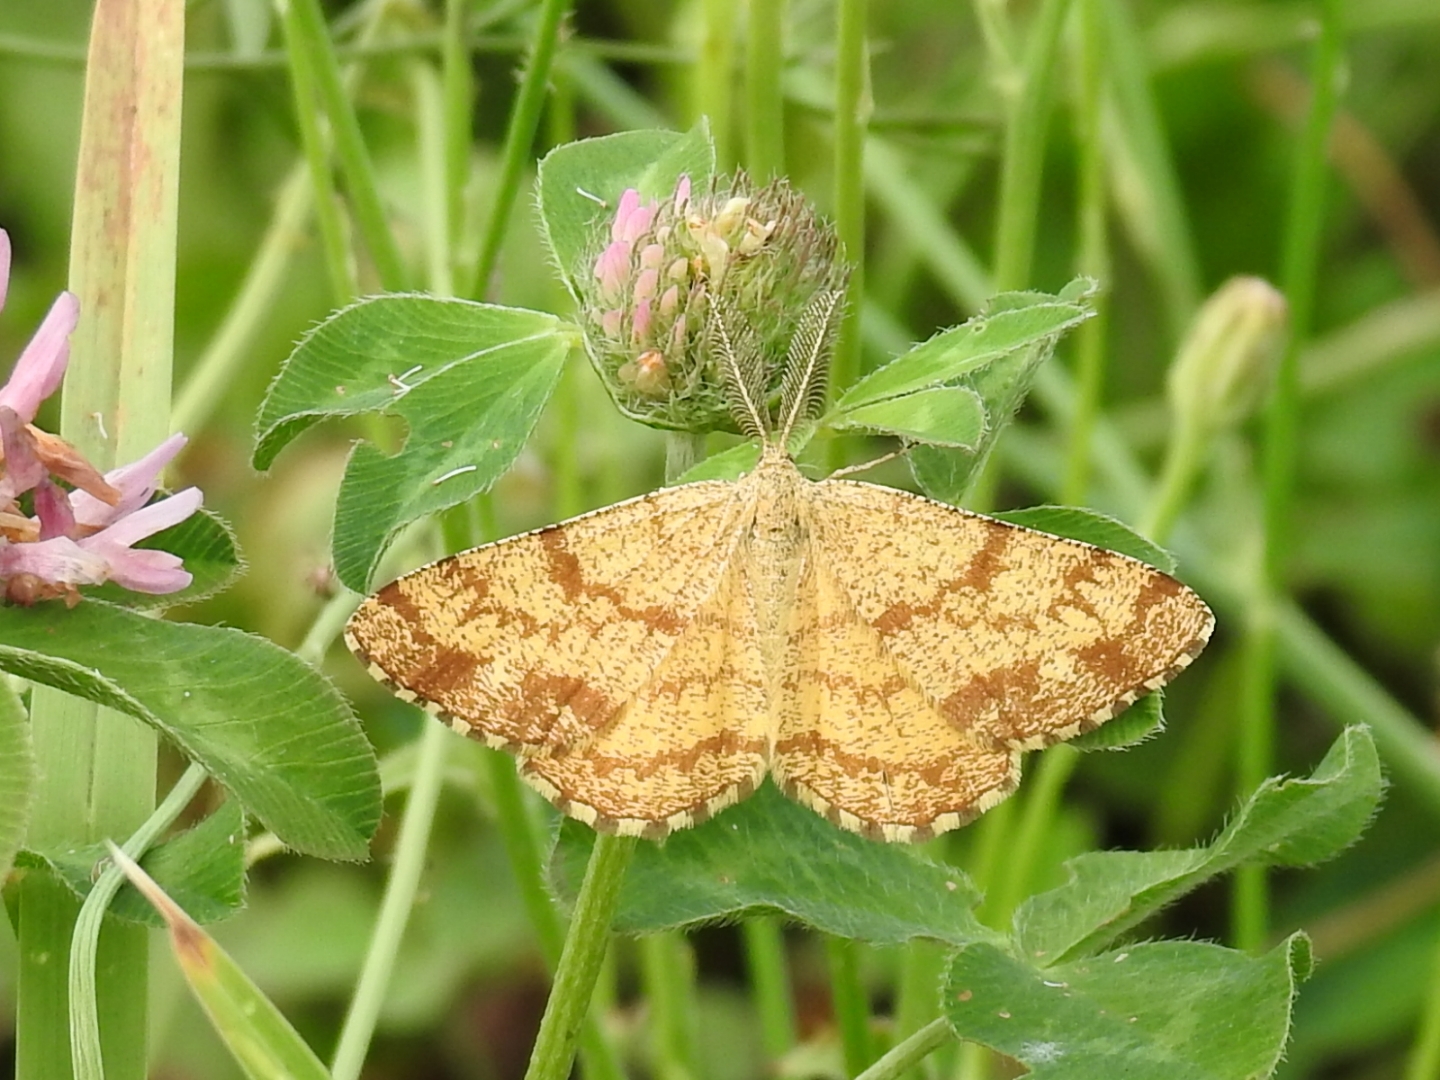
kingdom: Animalia
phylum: Arthropoda
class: Insecta
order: Lepidoptera
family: Geometridae
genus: Ematurga
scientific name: Ematurga atomaria
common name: Common heath
